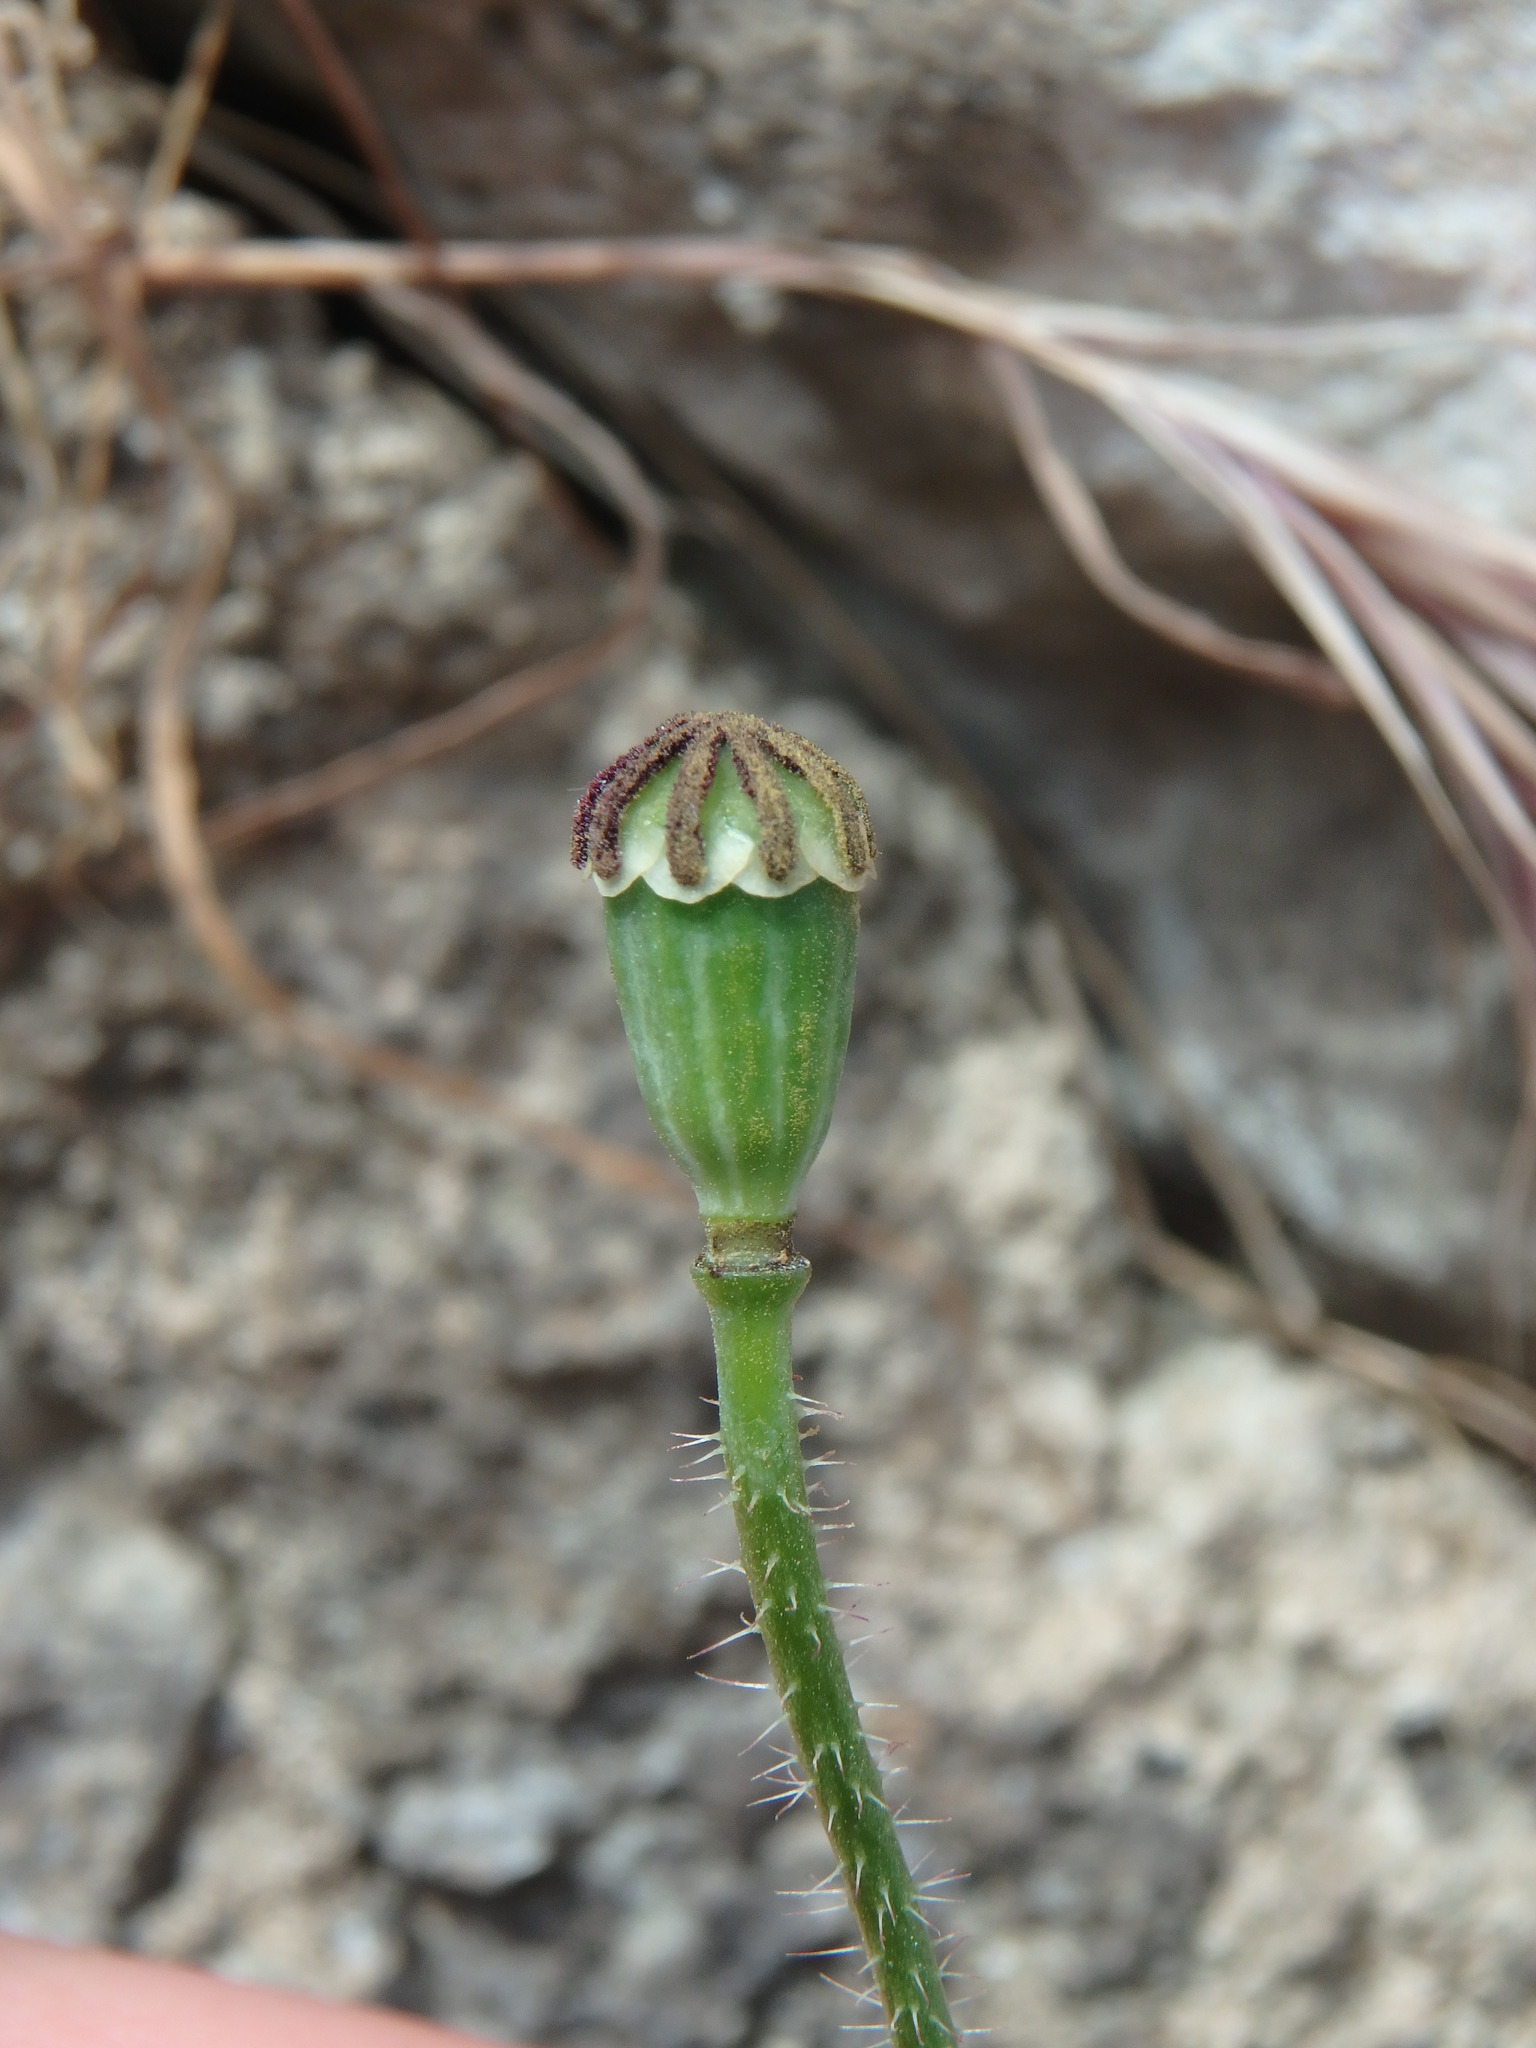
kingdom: Plantae
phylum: Tracheophyta
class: Magnoliopsida
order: Ranunculales
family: Papaveraceae
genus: Papaver
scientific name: Papaver rhoeas
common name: Corn poppy
